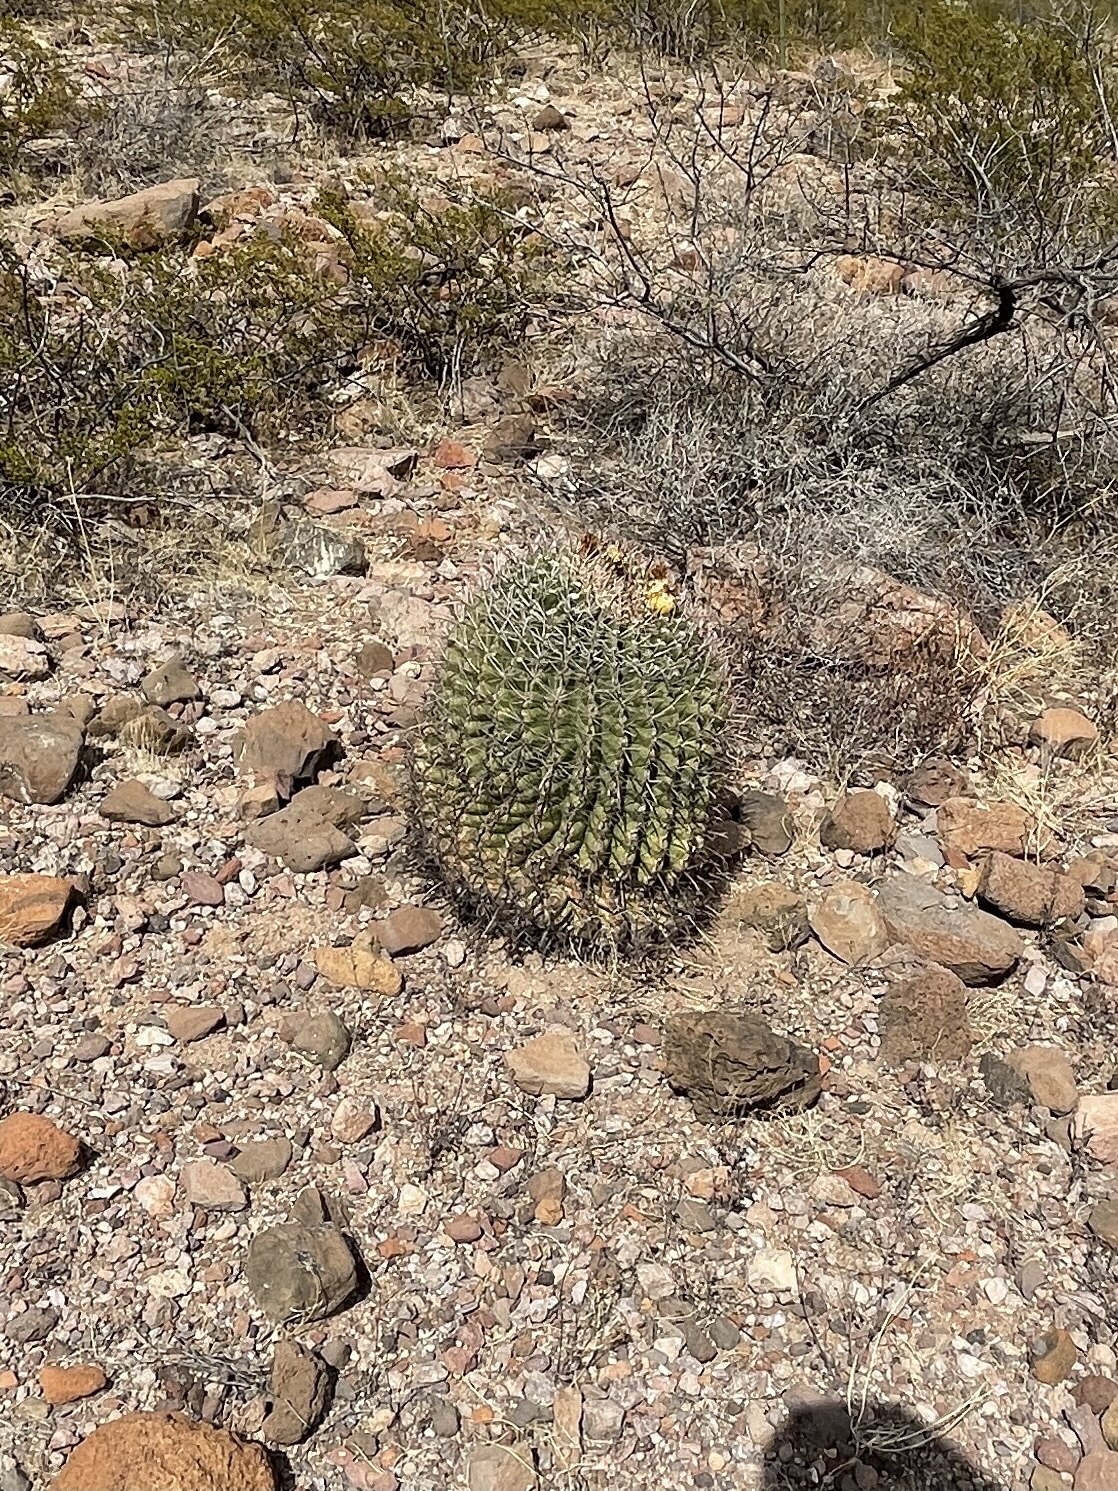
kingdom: Plantae
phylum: Tracheophyta
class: Magnoliopsida
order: Caryophyllales
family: Cactaceae
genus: Ferocactus
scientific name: Ferocactus wislizeni
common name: Candy barrel cactus
